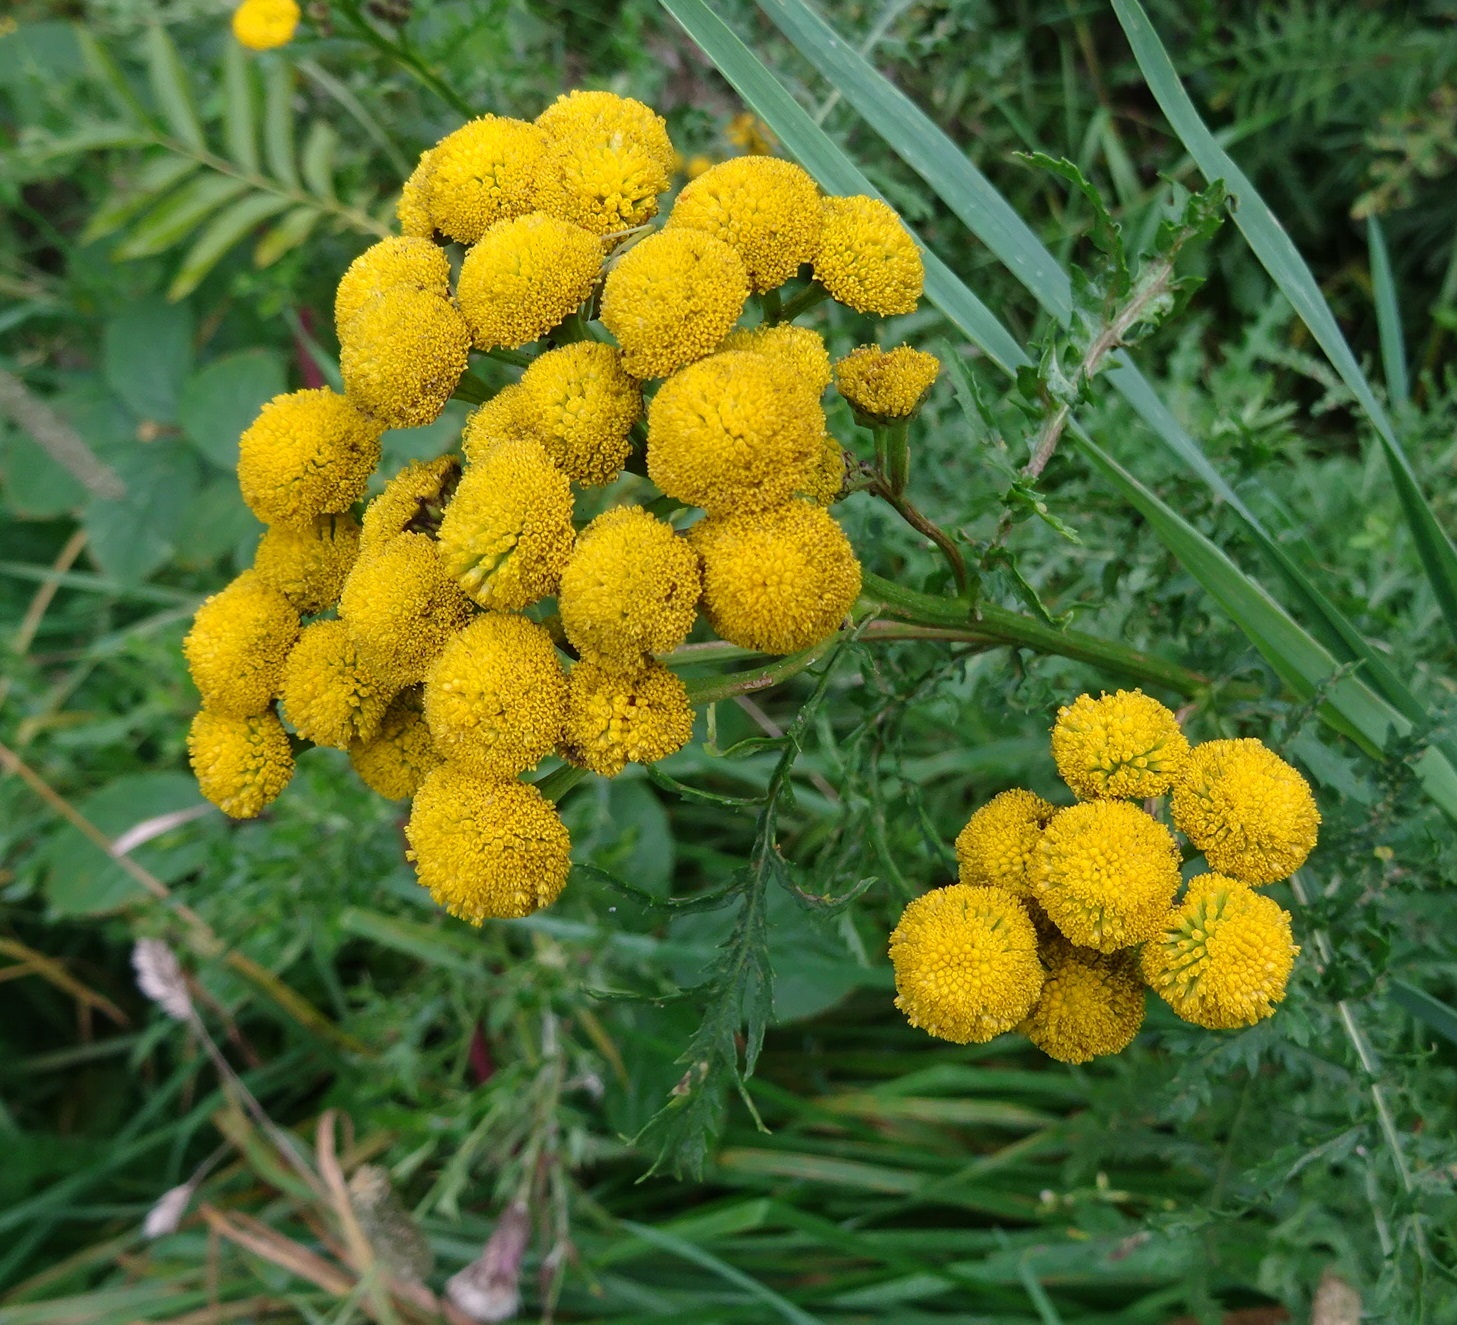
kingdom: Plantae
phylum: Tracheophyta
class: Magnoliopsida
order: Asterales
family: Asteraceae
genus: Tanacetum
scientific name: Tanacetum vulgare
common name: Common tansy
